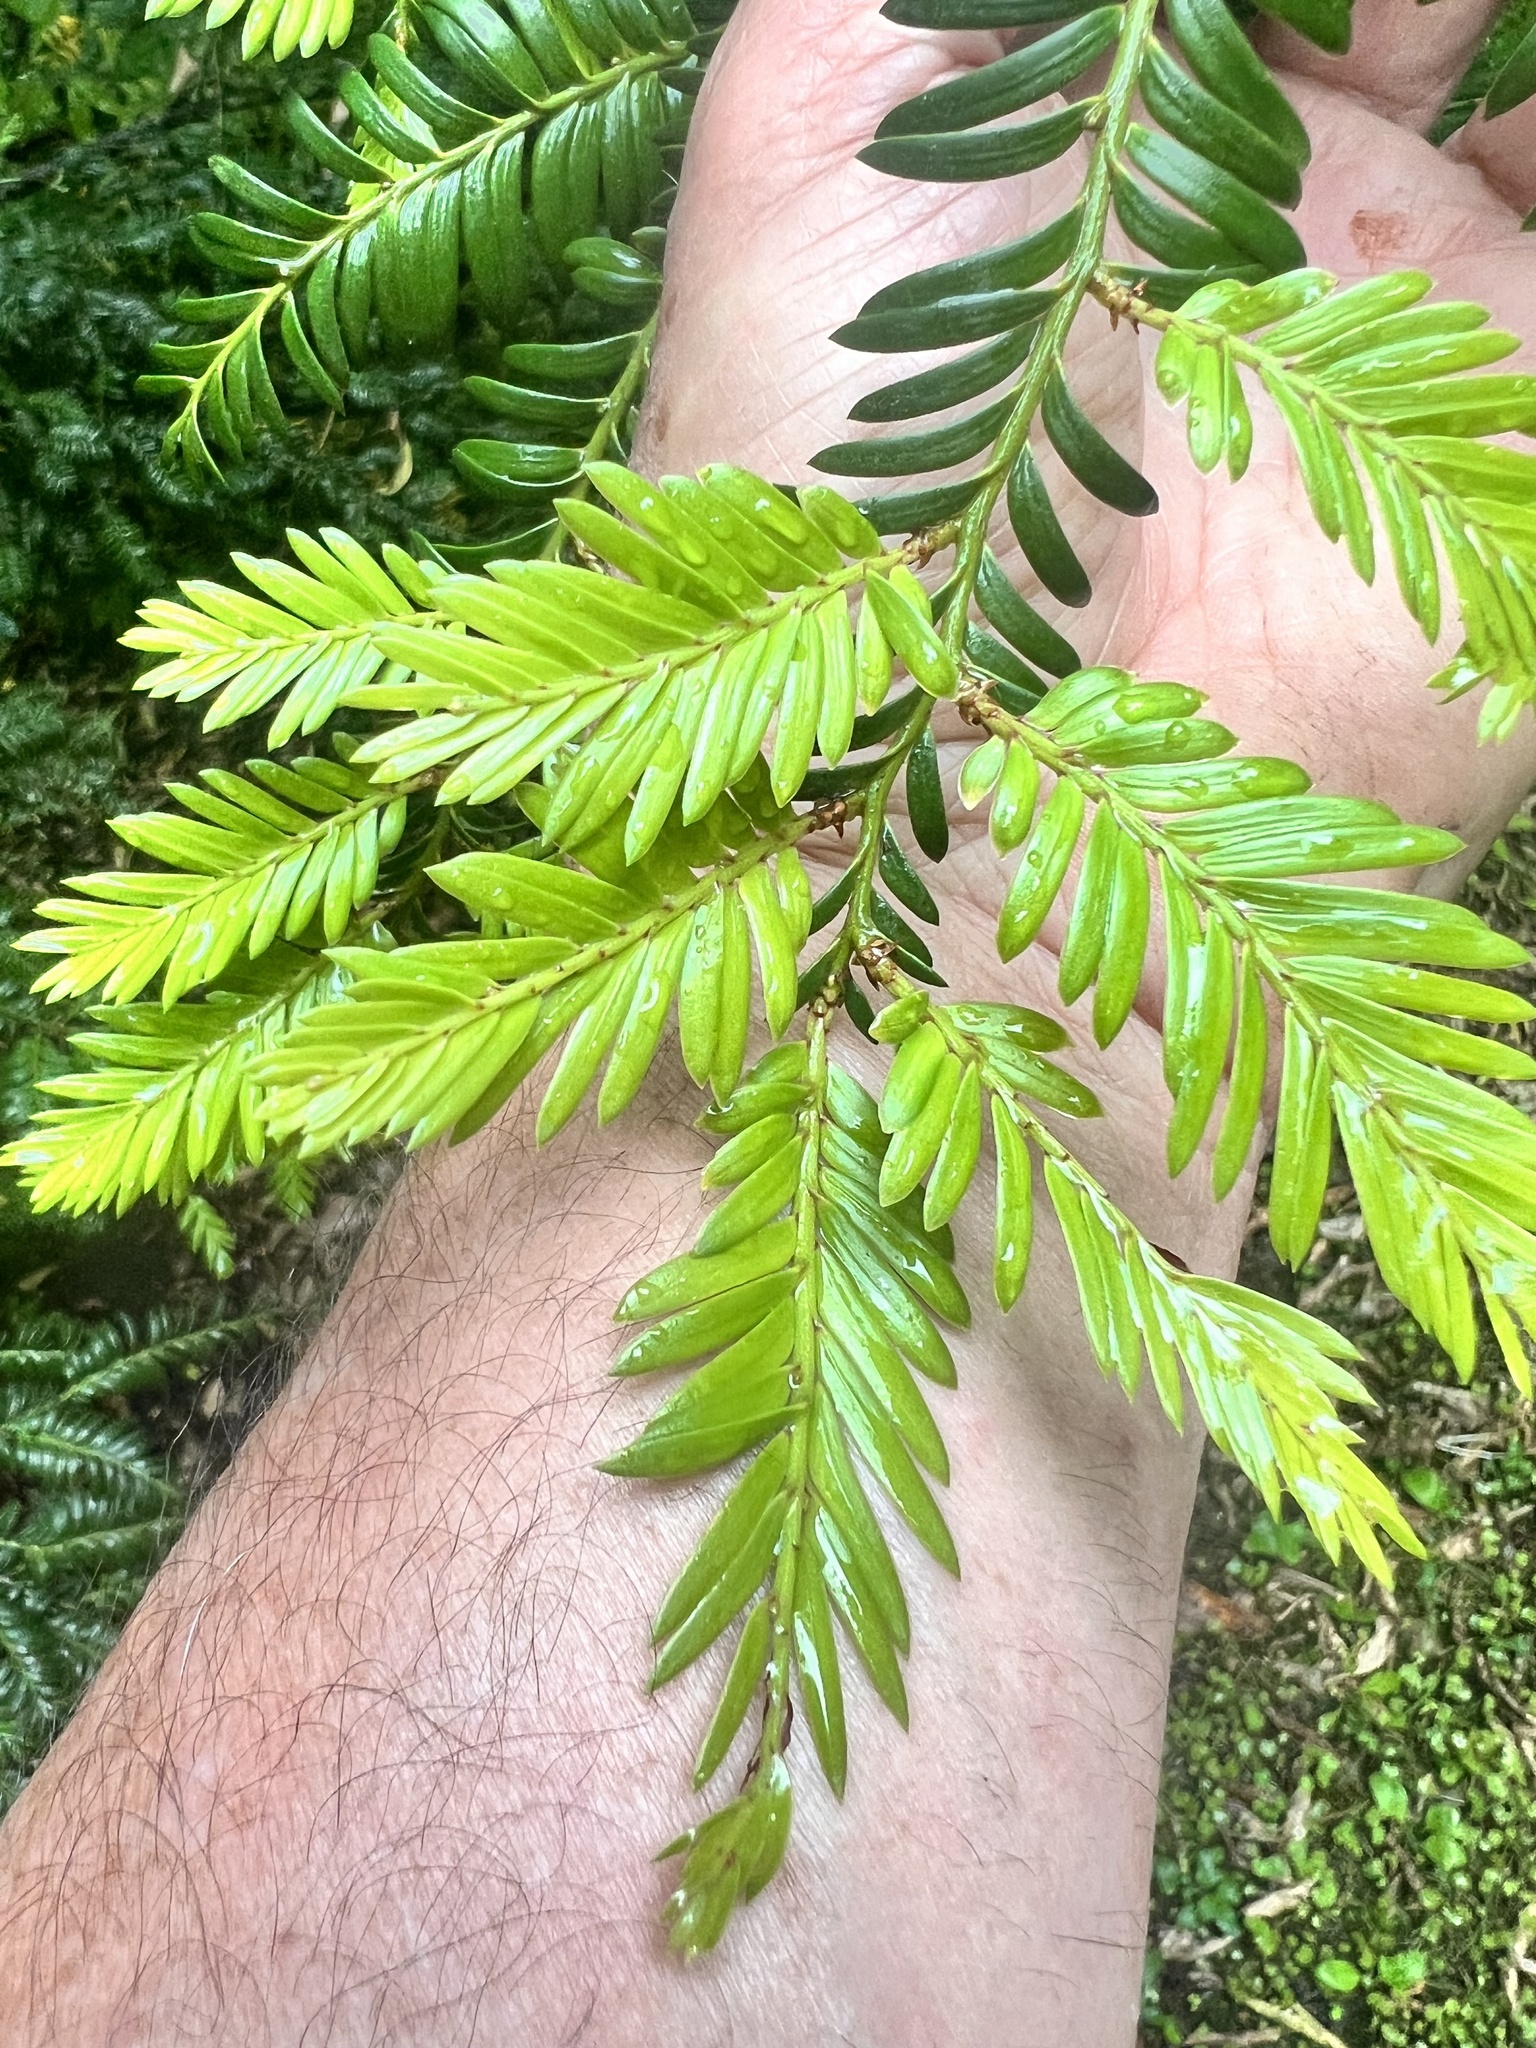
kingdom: Plantae
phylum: Tracheophyta
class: Pinopsida
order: Pinales
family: Podocarpaceae
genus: Prumnopitys
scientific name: Prumnopitys ferruginea
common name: Brown pine
